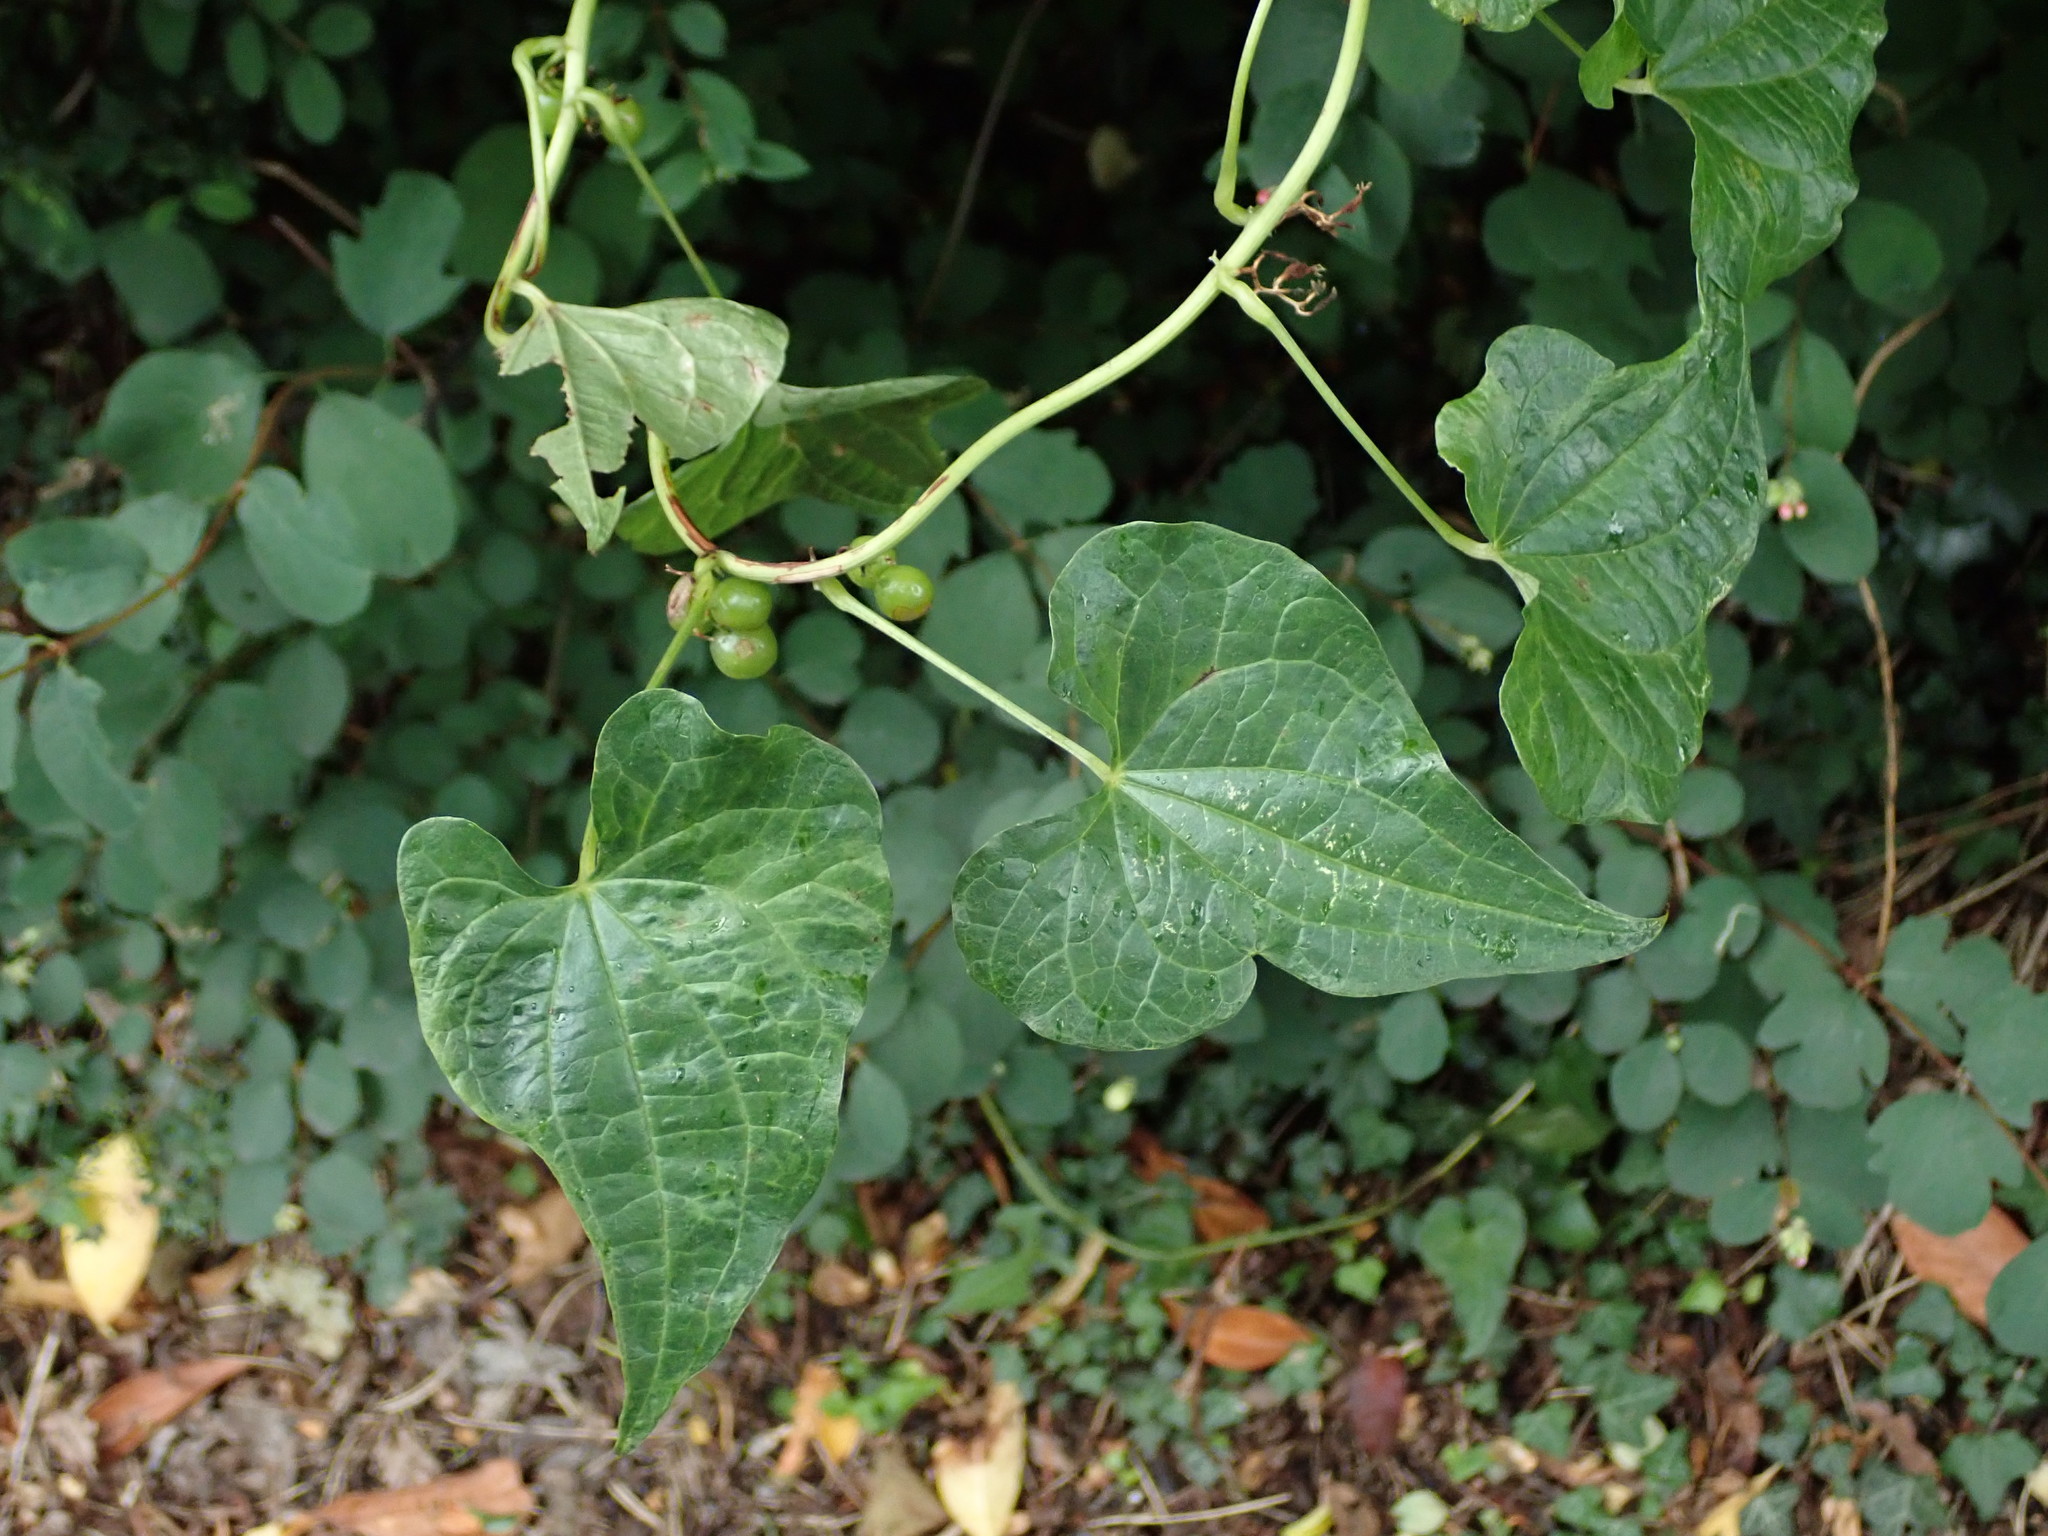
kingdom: Plantae
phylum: Tracheophyta
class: Liliopsida
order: Dioscoreales
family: Dioscoreaceae
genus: Dioscorea
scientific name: Dioscorea communis
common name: Black-bindweed
